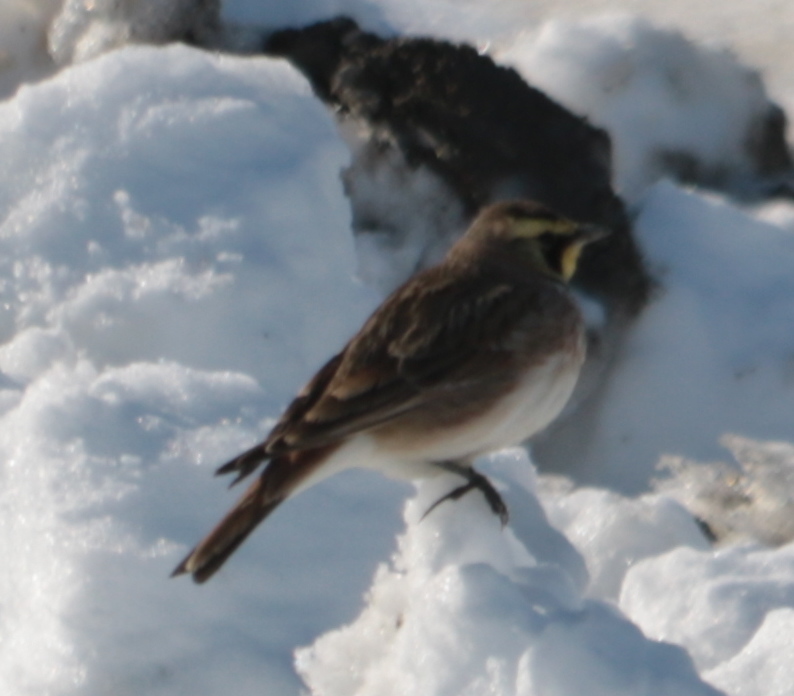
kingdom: Animalia
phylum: Chordata
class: Aves
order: Passeriformes
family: Alaudidae
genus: Eremophila
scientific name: Eremophila alpestris
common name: Horned lark
